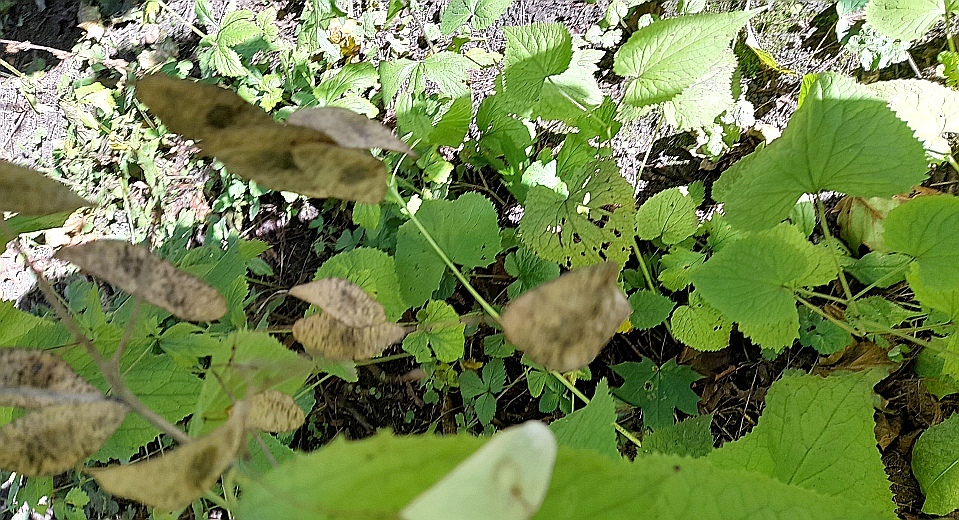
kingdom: Plantae
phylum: Tracheophyta
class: Magnoliopsida
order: Brassicales
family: Brassicaceae
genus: Lunaria
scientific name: Lunaria rediviva
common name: Perennial honesty
